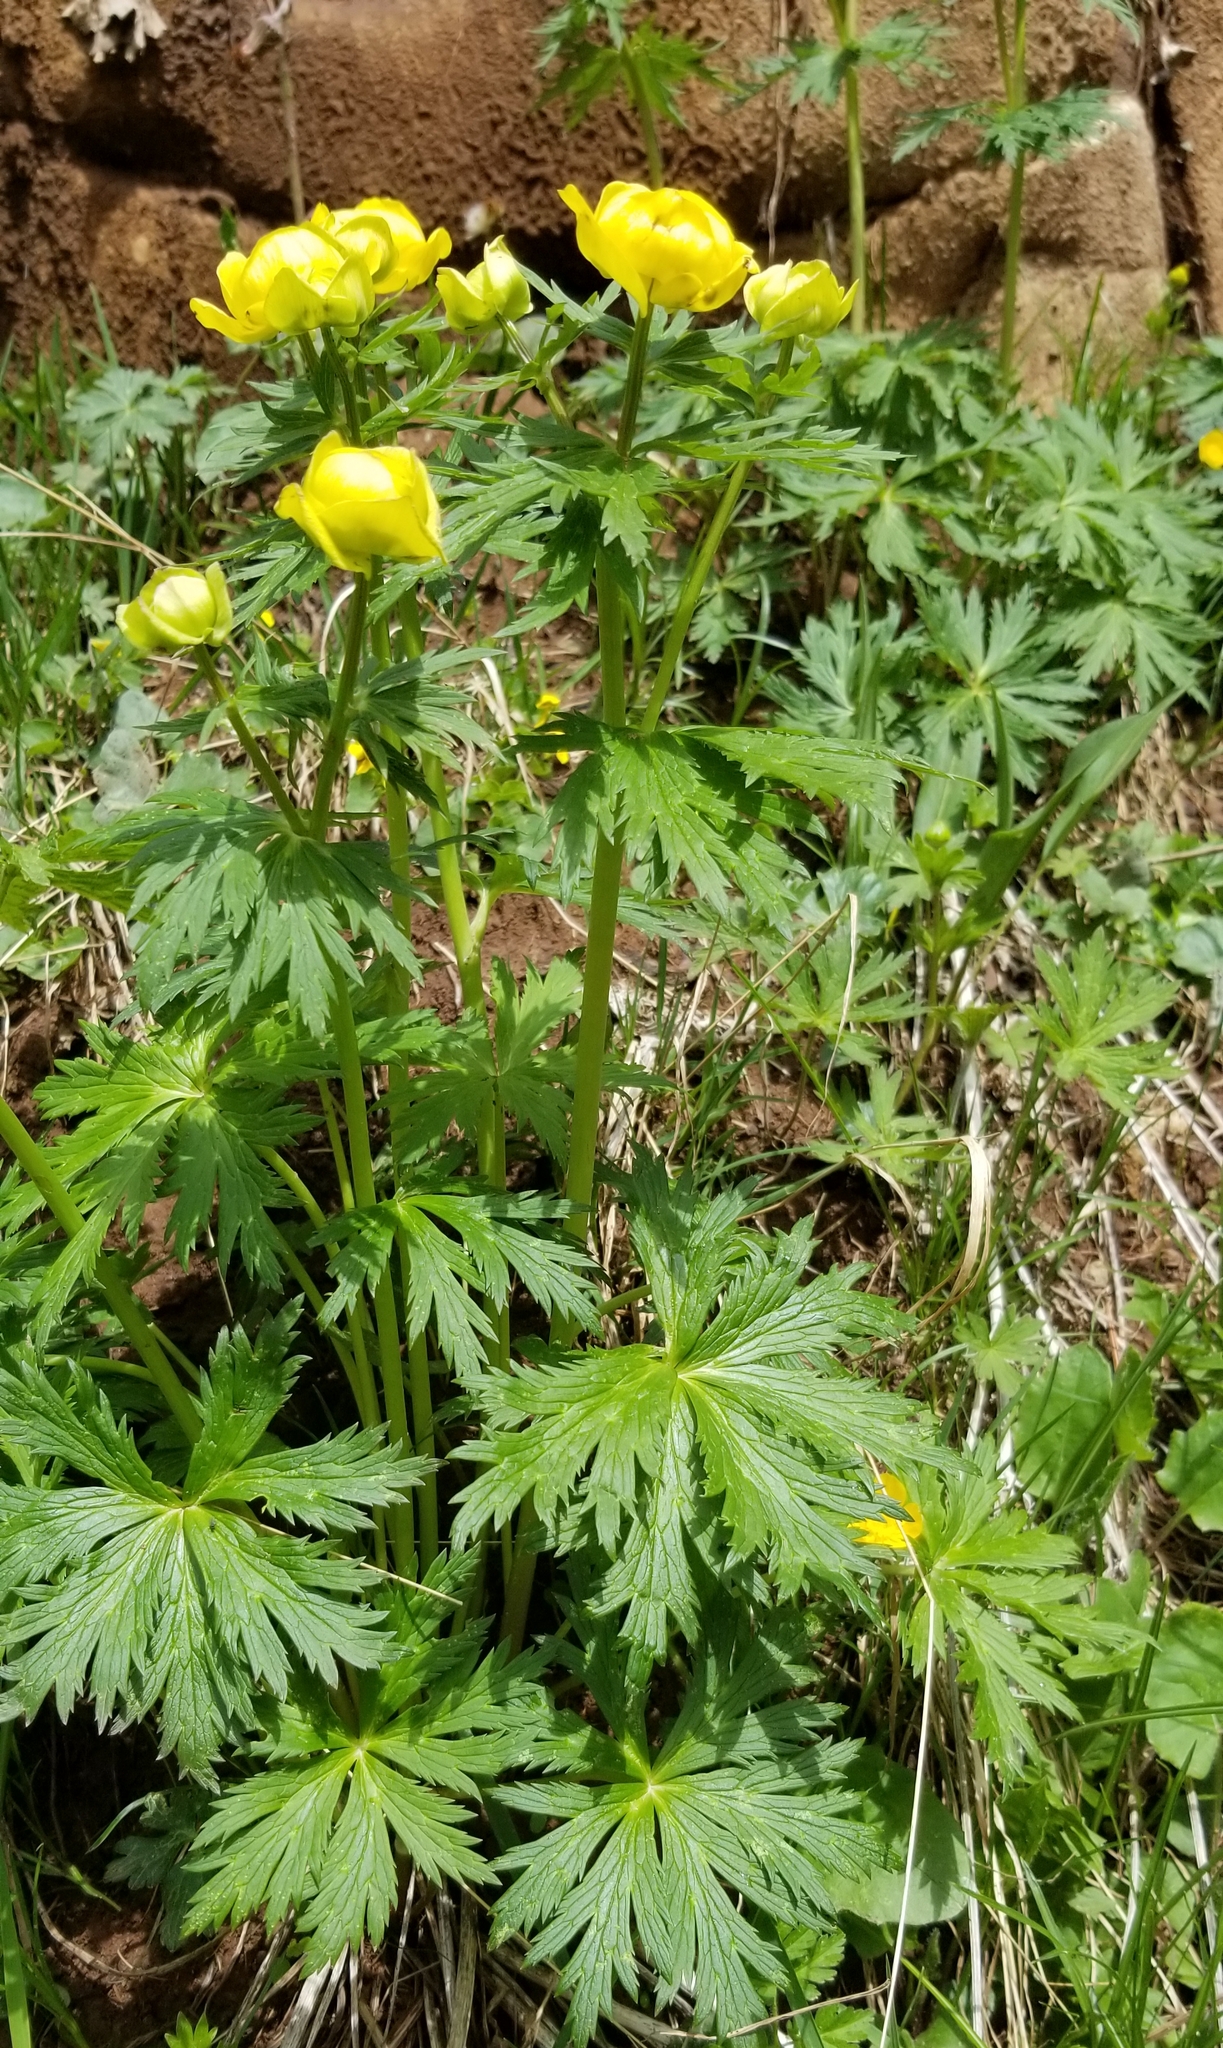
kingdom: Plantae
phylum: Tracheophyta
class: Magnoliopsida
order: Ranunculales
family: Ranunculaceae
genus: Trollius
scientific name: Trollius europaeus
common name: European globeflower
